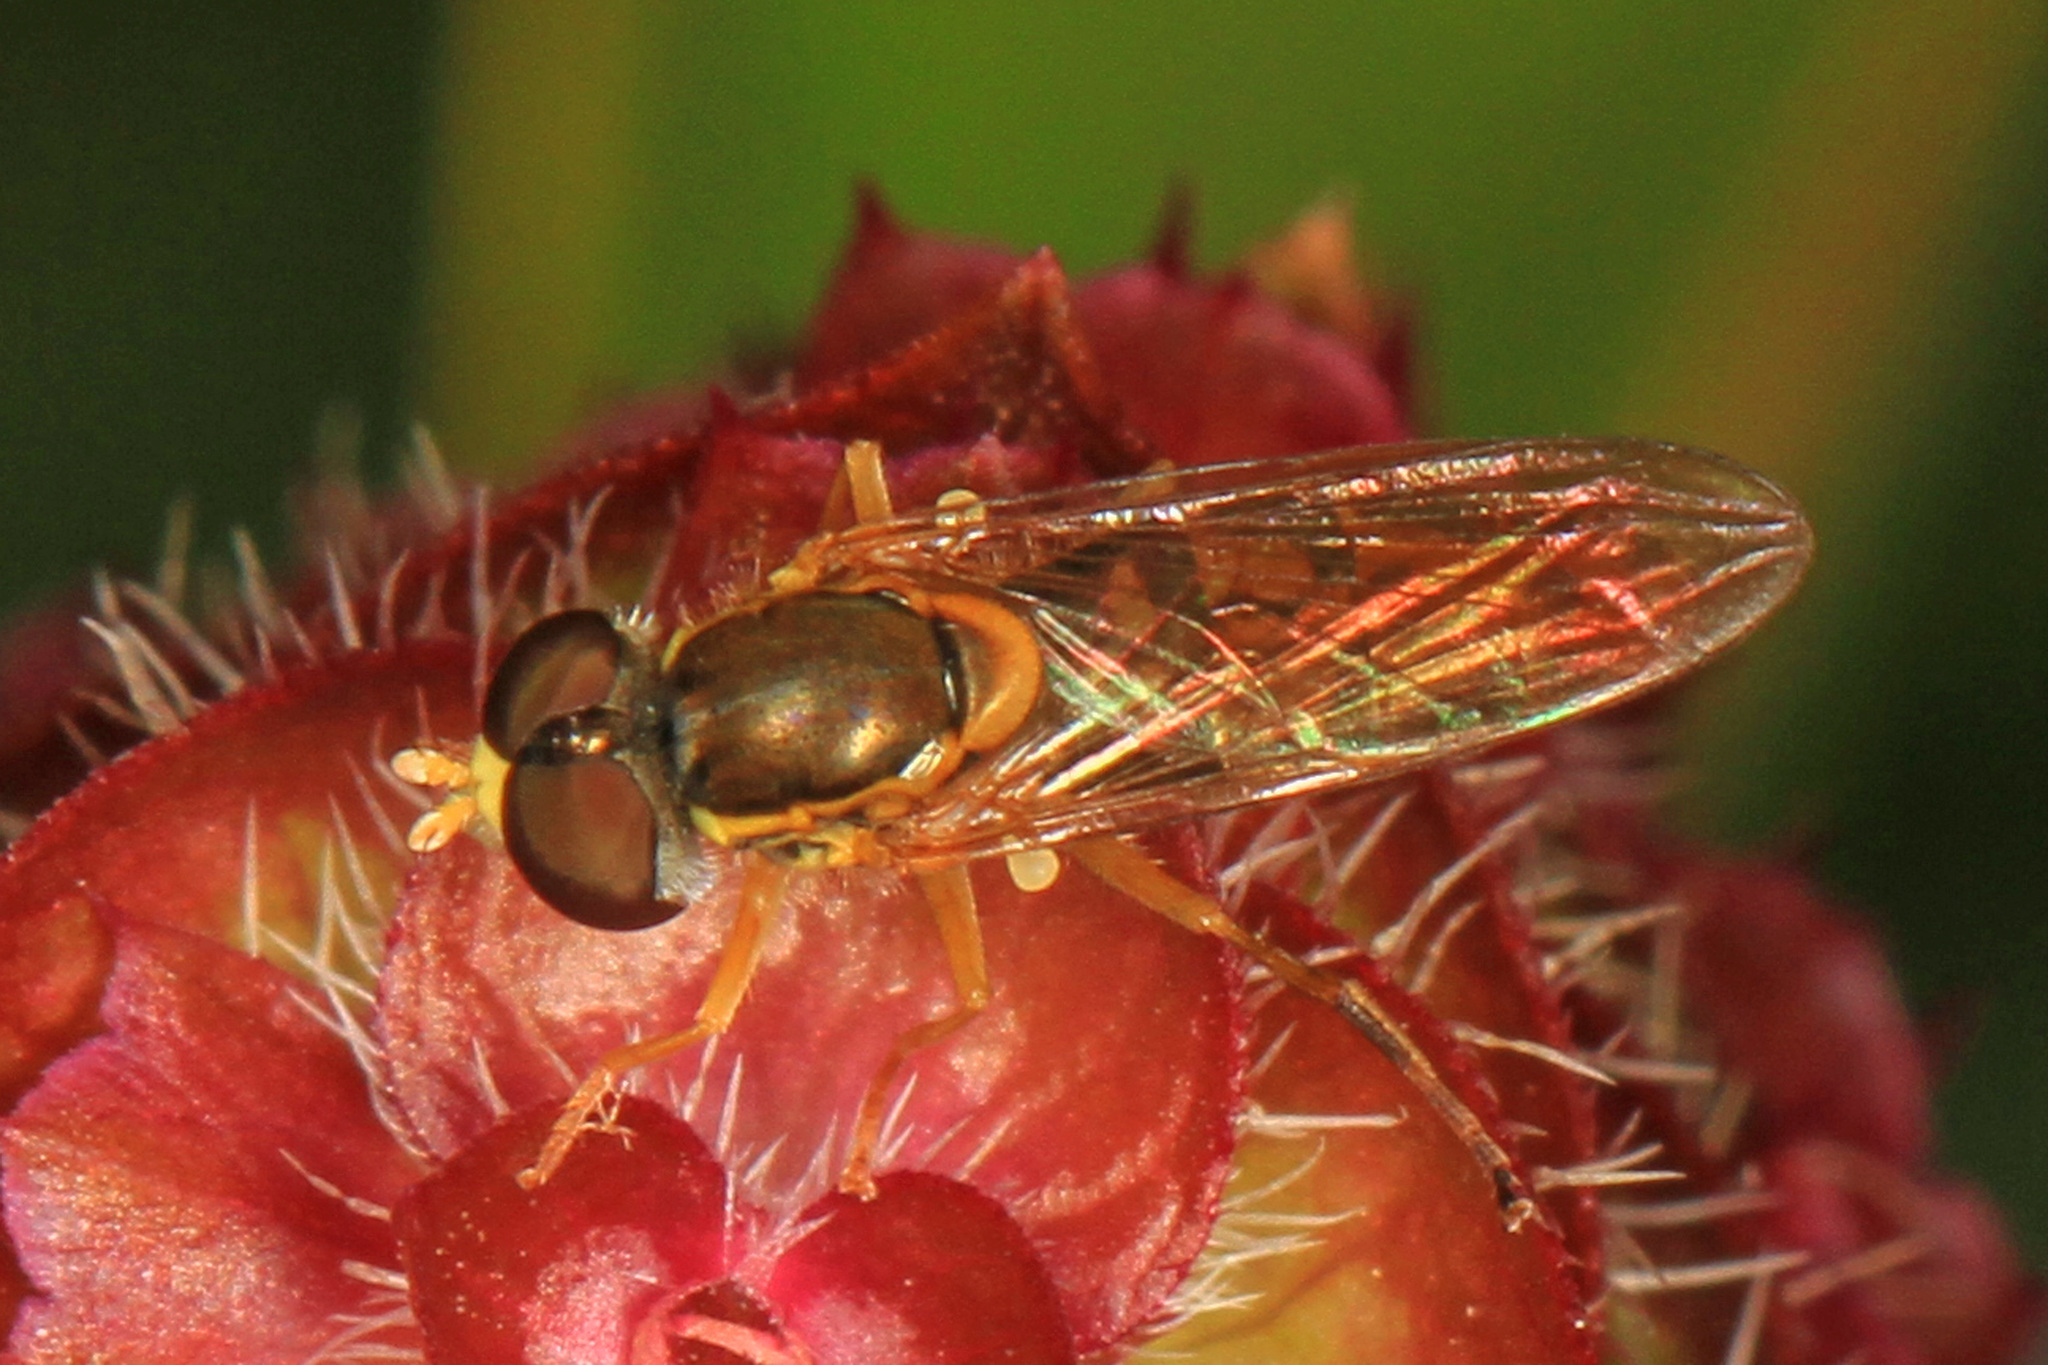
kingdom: Animalia
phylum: Arthropoda
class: Insecta
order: Diptera
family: Syrphidae
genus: Toxomerus
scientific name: Toxomerus marginatus
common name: Syrphid fly
